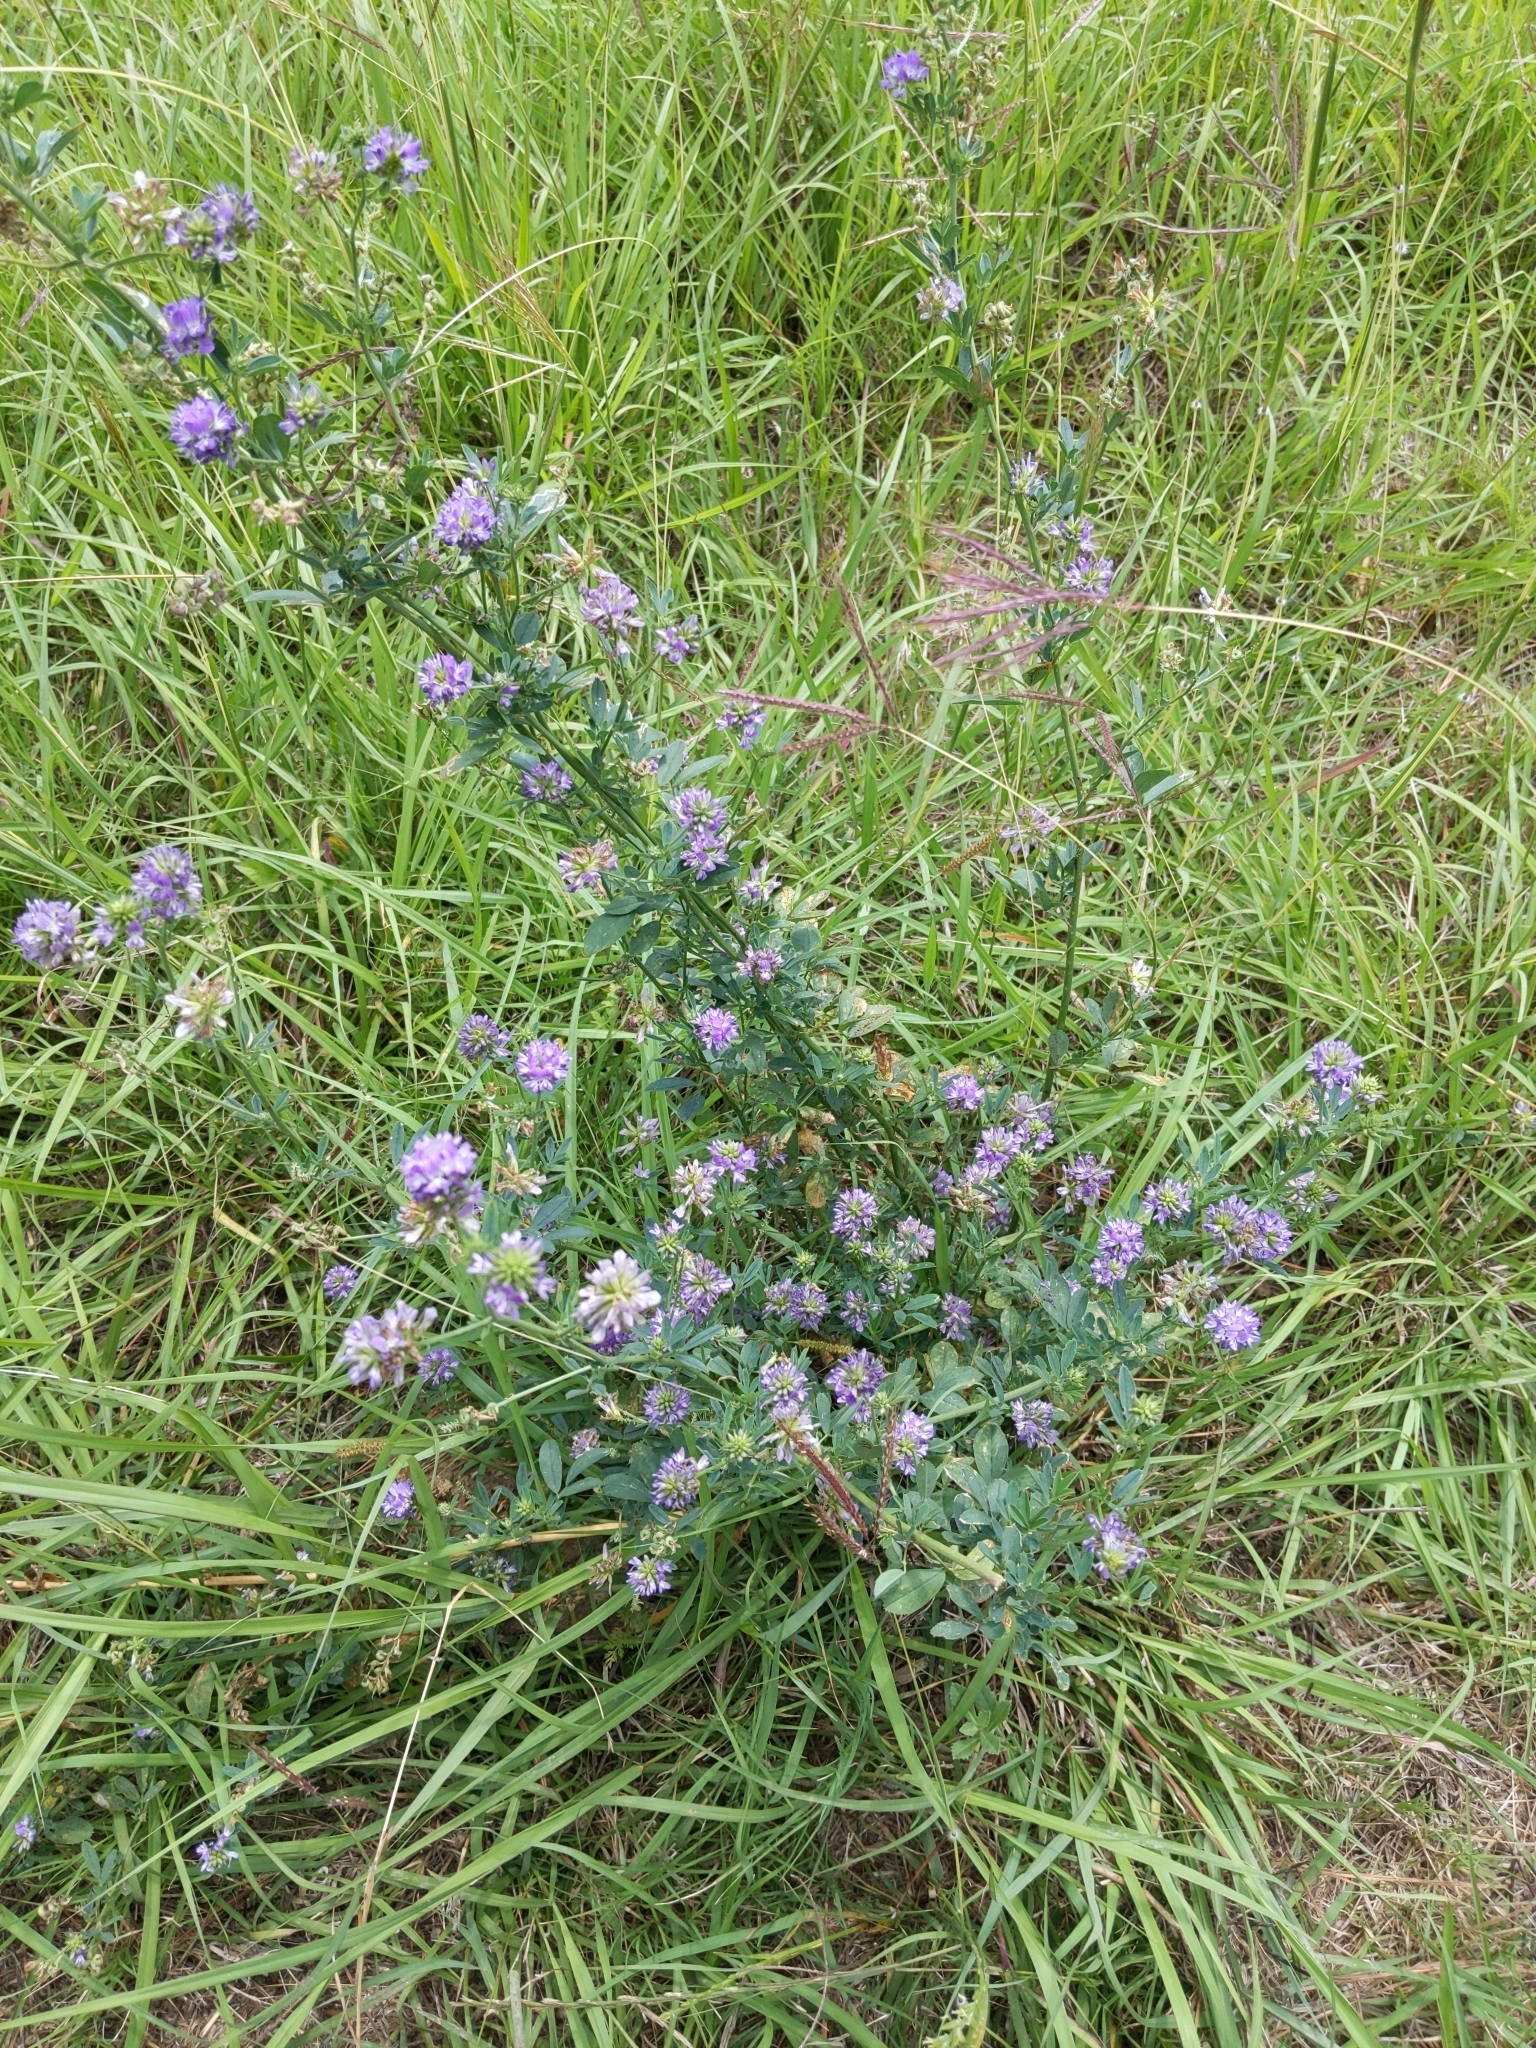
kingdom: Plantae
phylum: Tracheophyta
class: Magnoliopsida
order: Fabales
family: Fabaceae
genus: Medicago
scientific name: Medicago sativa
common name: Alfalfa
